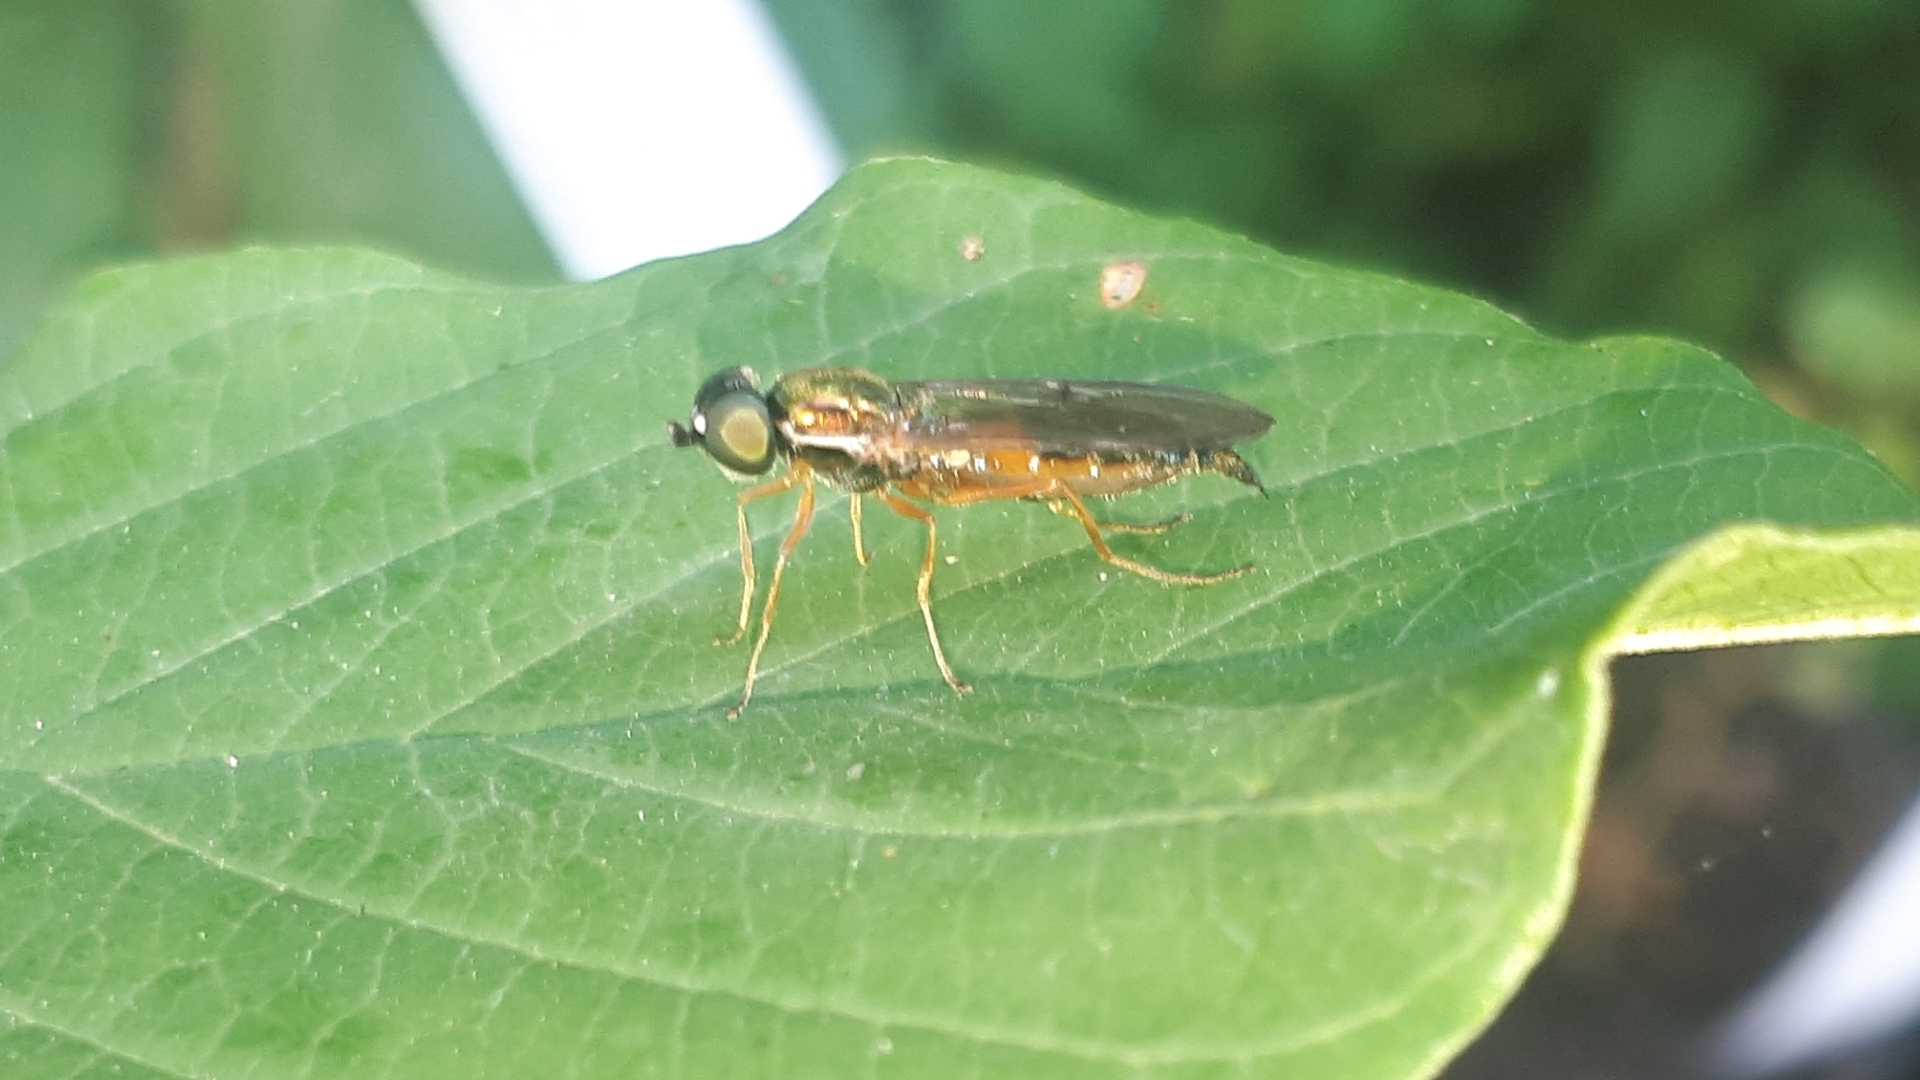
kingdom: Animalia
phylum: Arthropoda
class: Insecta
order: Diptera
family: Stratiomyidae
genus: Sargus
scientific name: Sargus bipunctatus
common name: Twin-spot centurion
